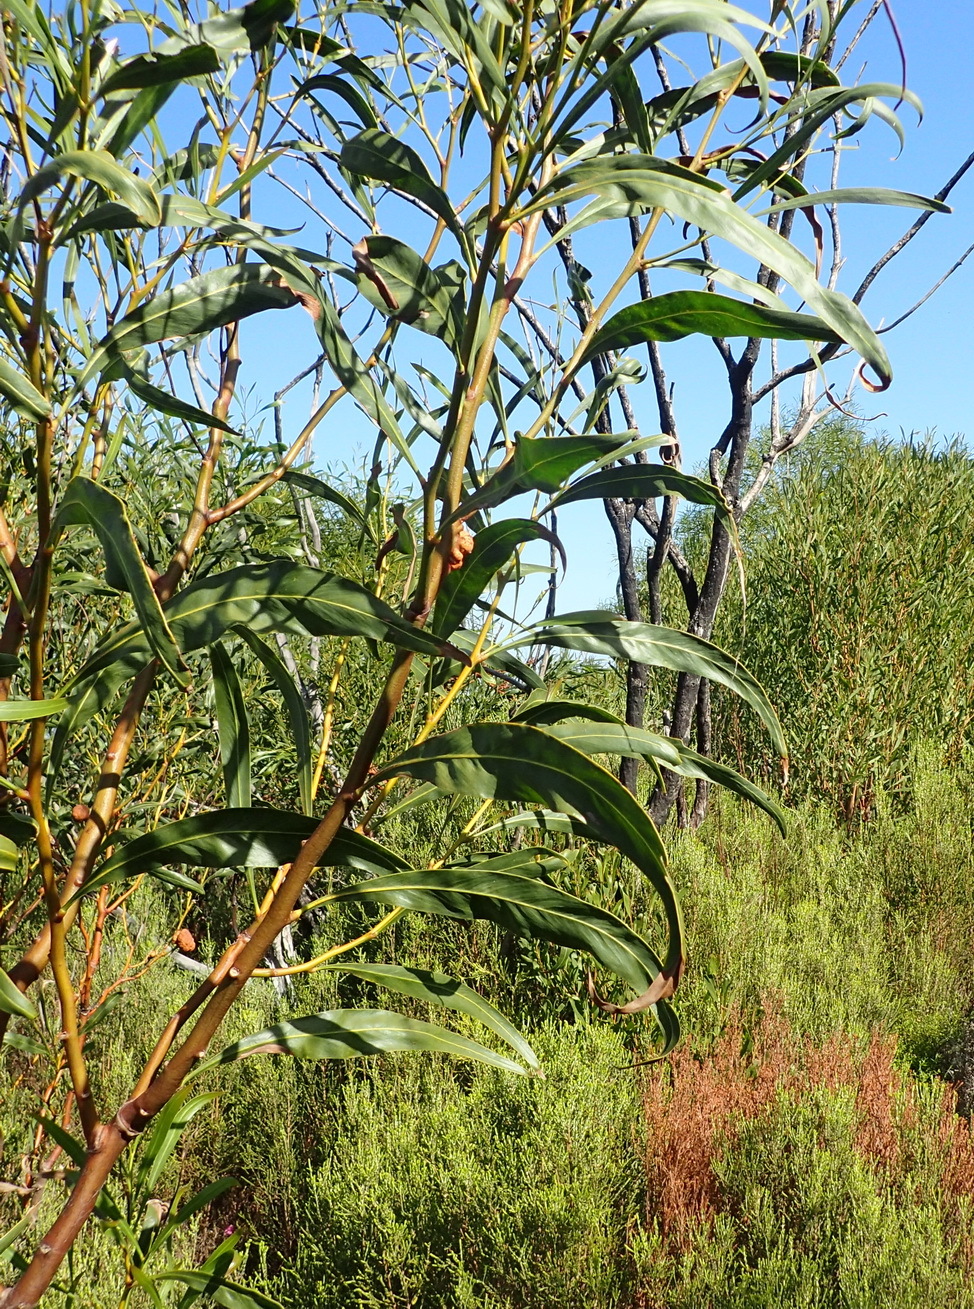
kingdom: Plantae
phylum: Tracheophyta
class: Magnoliopsida
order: Fabales
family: Fabaceae
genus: Acacia
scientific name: Acacia saligna
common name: Orange wattle
